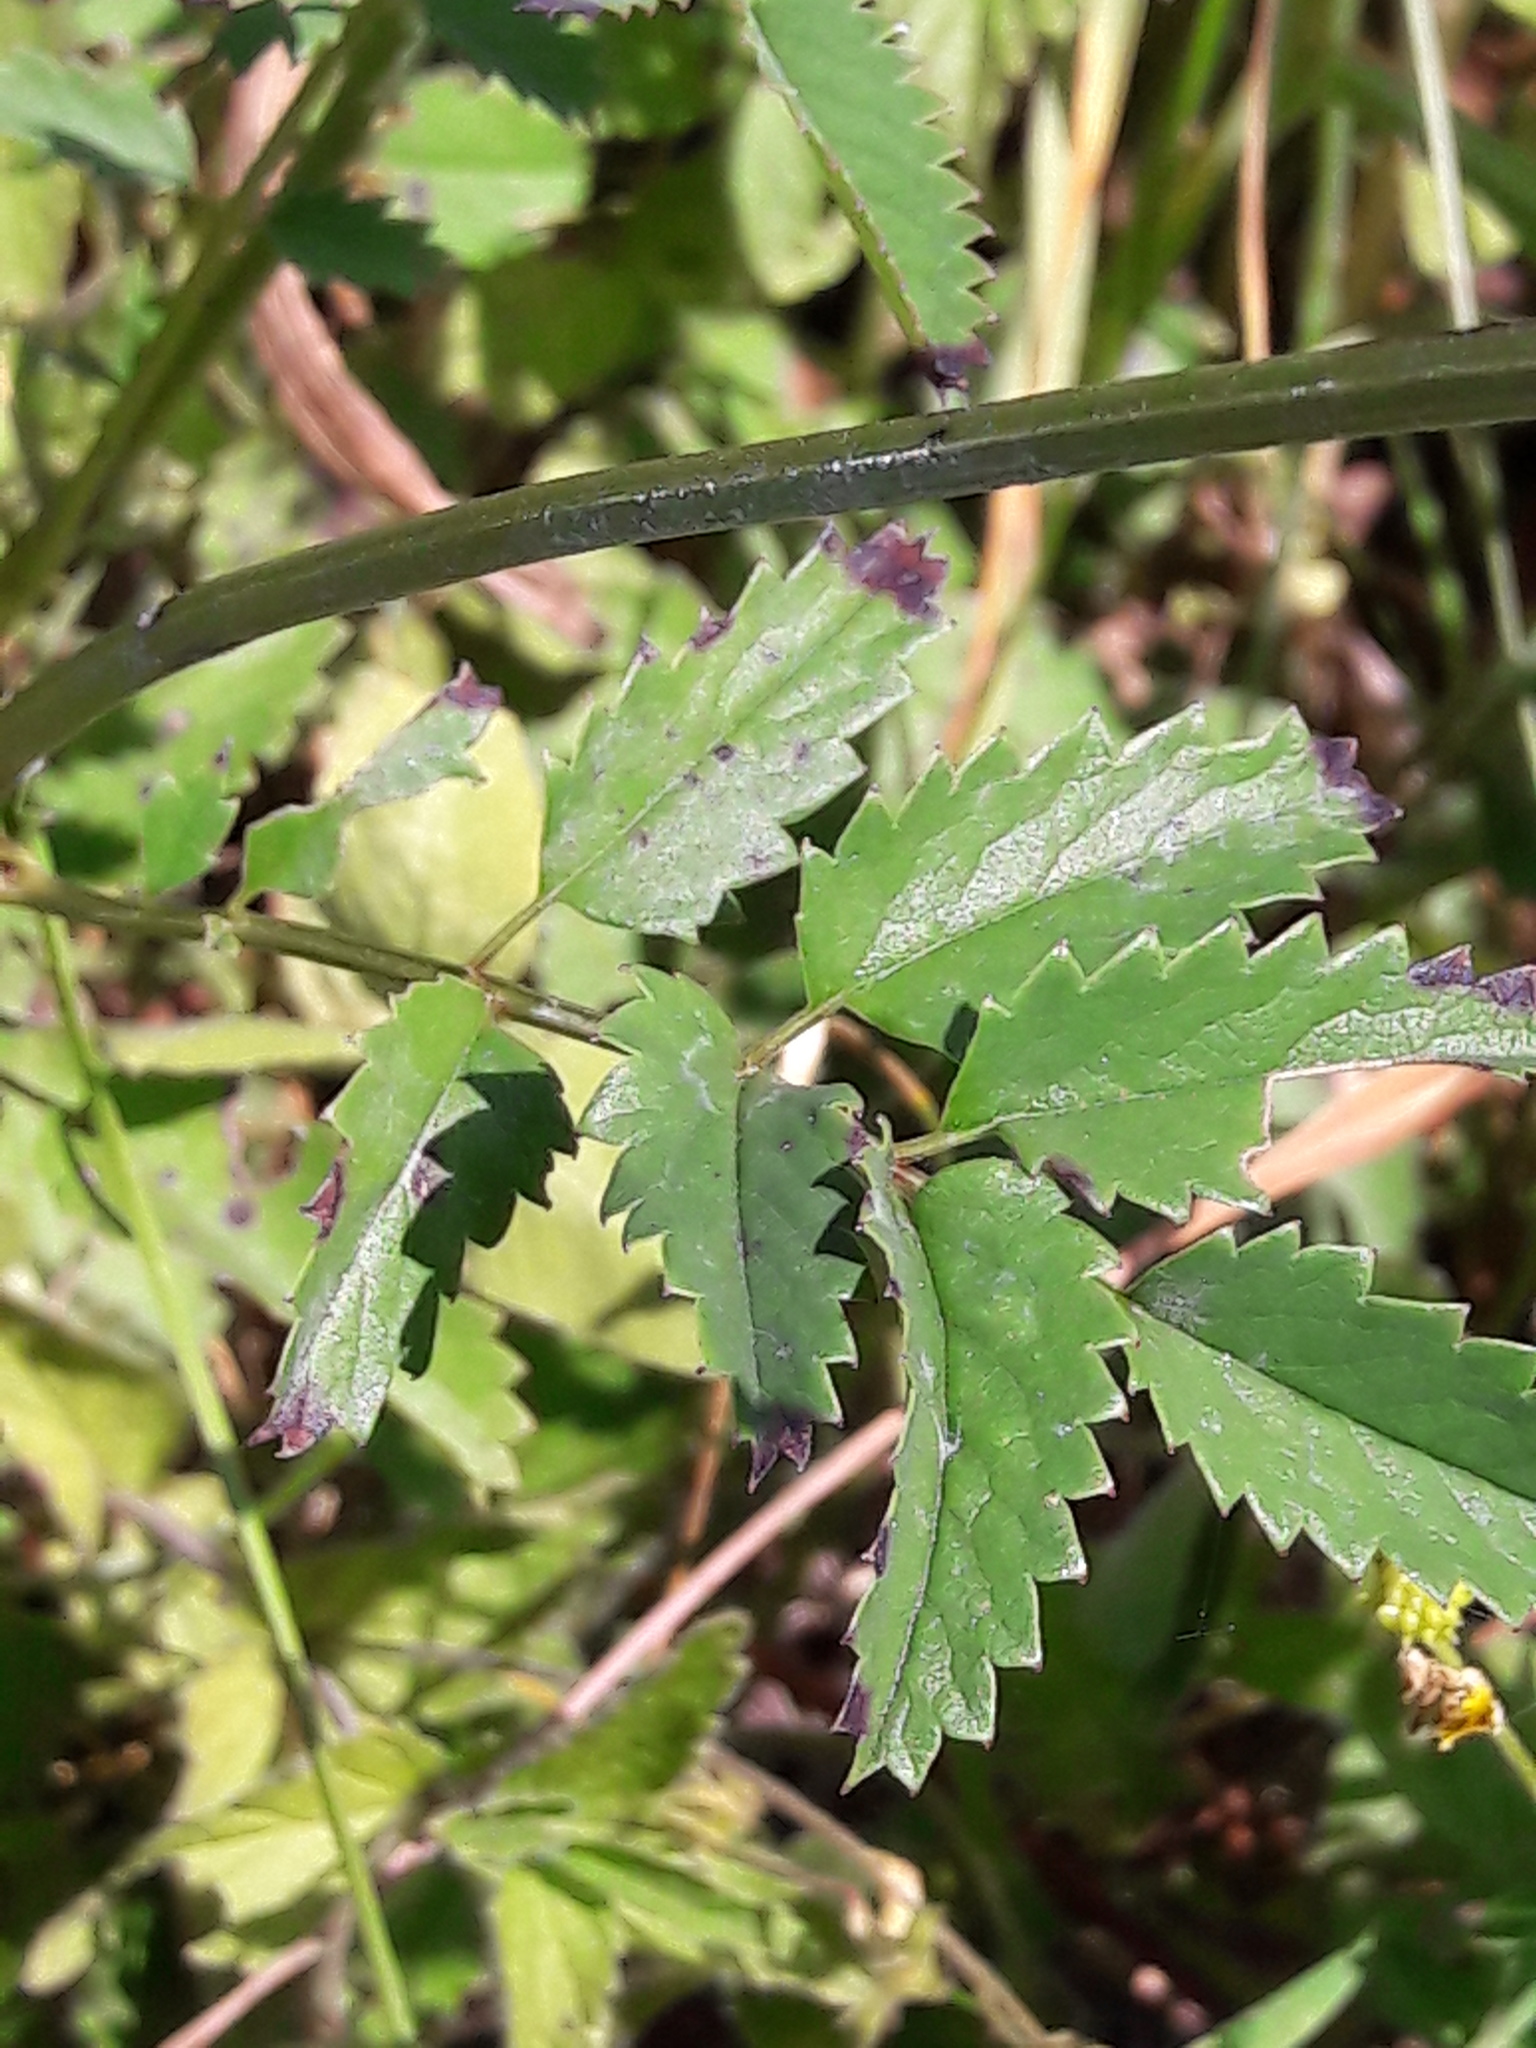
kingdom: Plantae
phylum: Tracheophyta
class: Magnoliopsida
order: Rosales
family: Rosaceae
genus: Sanguisorba
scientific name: Sanguisorba officinalis
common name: Great burnet
